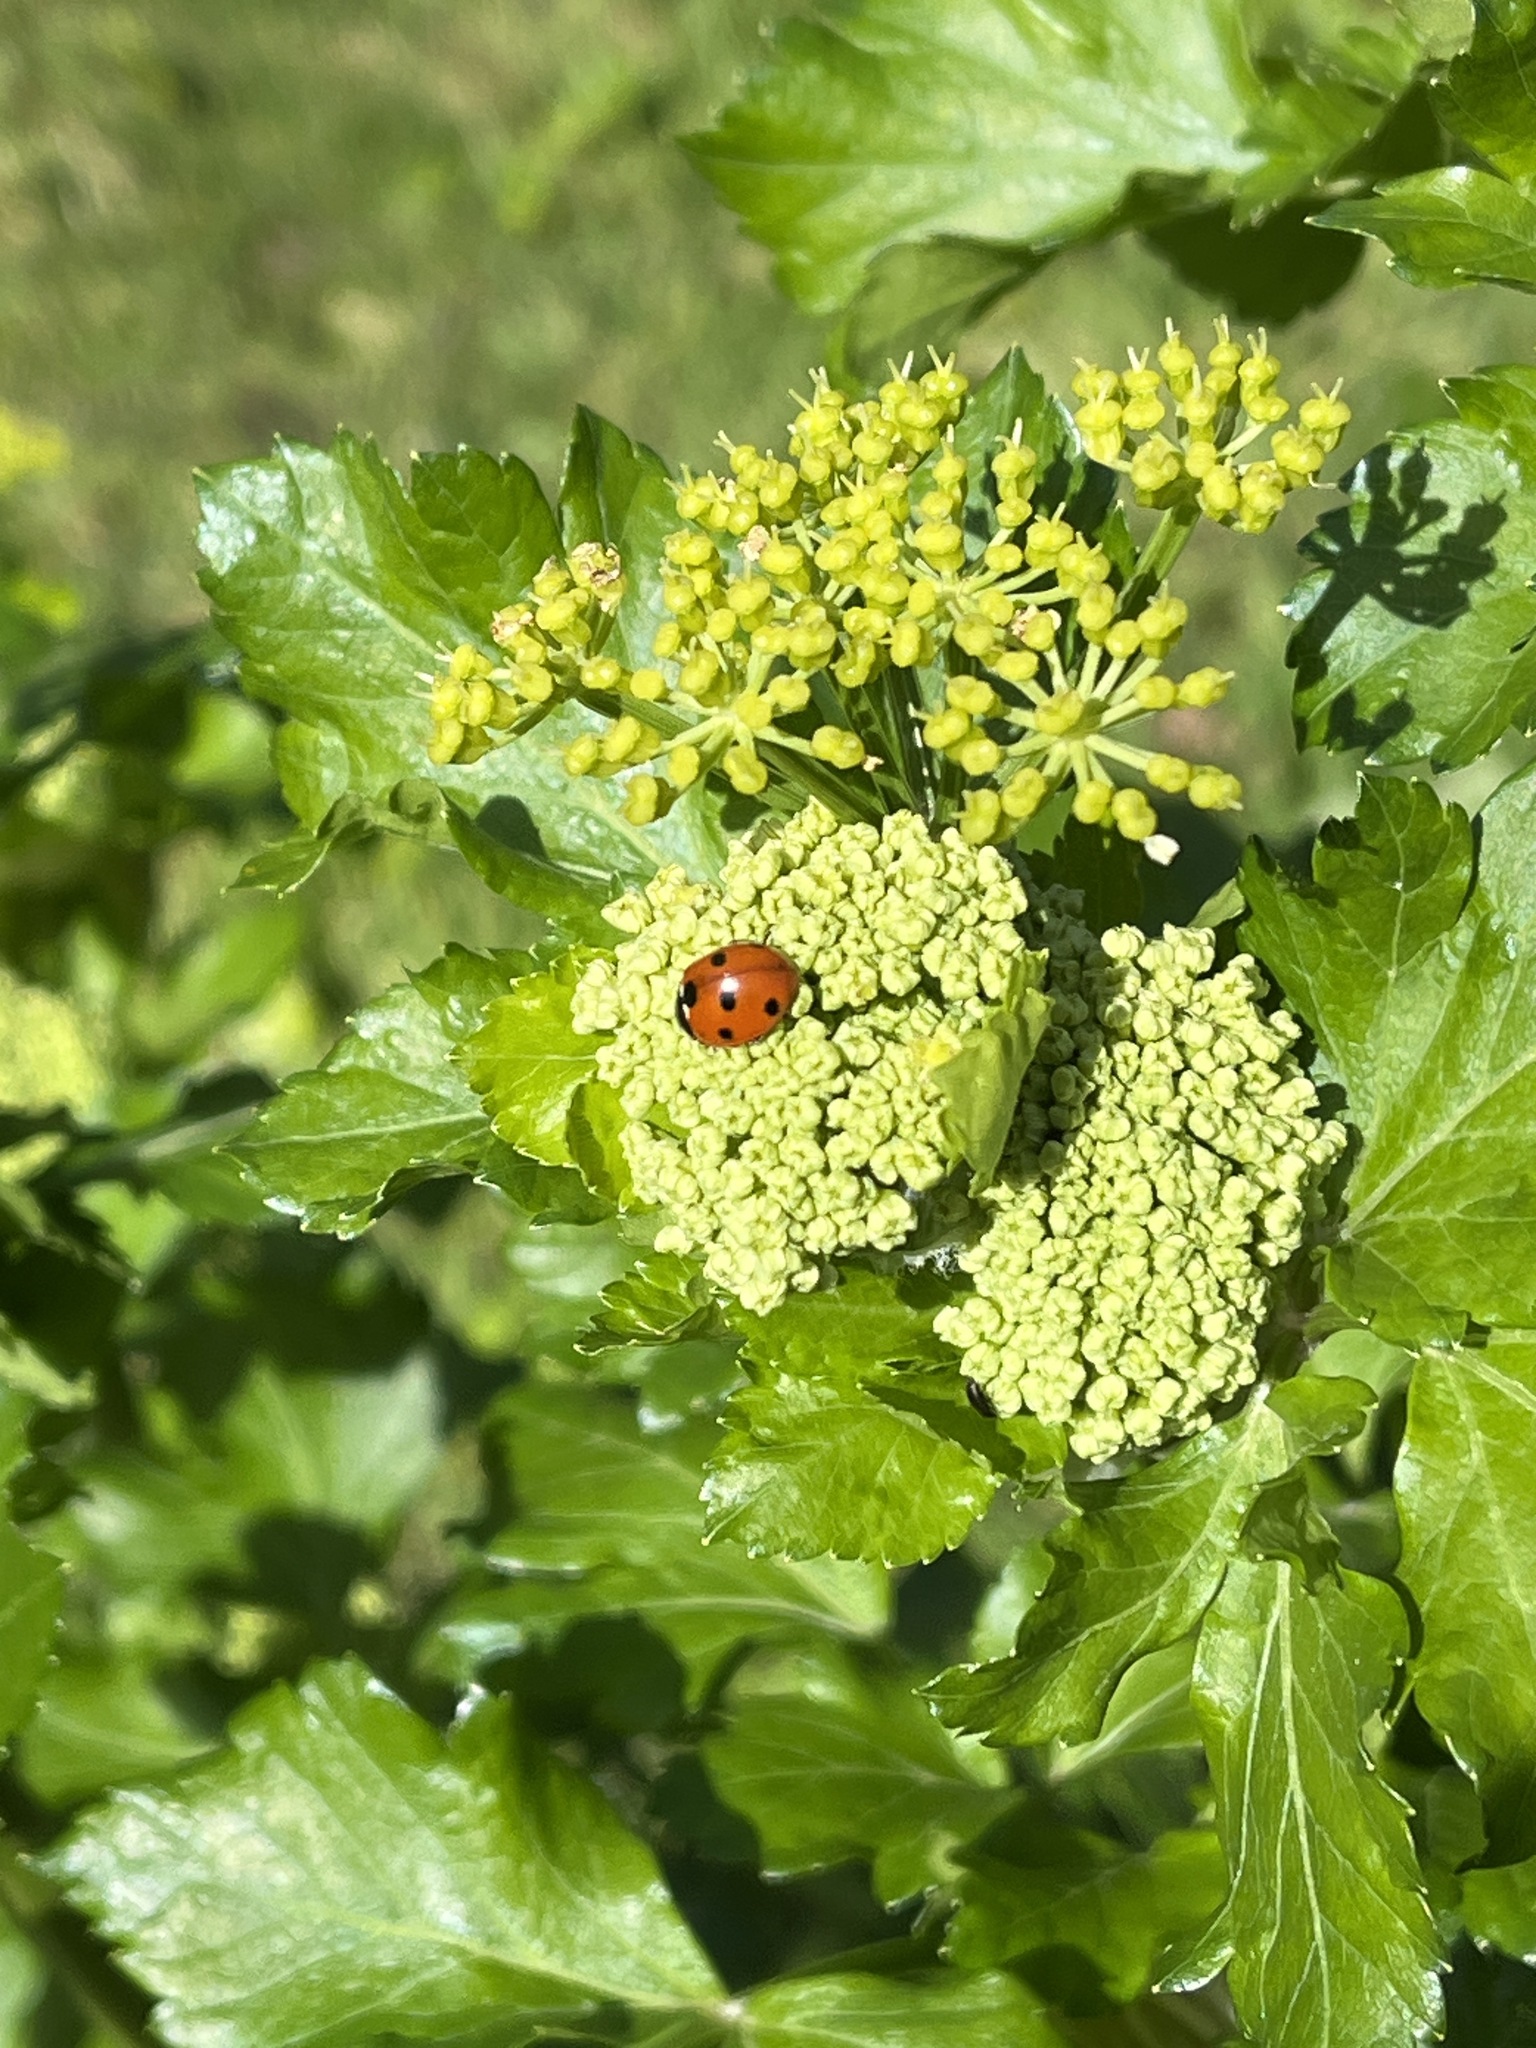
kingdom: Animalia
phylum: Arthropoda
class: Insecta
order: Coleoptera
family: Coccinellidae
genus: Coccinella
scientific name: Coccinella septempunctata
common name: Sevenspotted lady beetle
